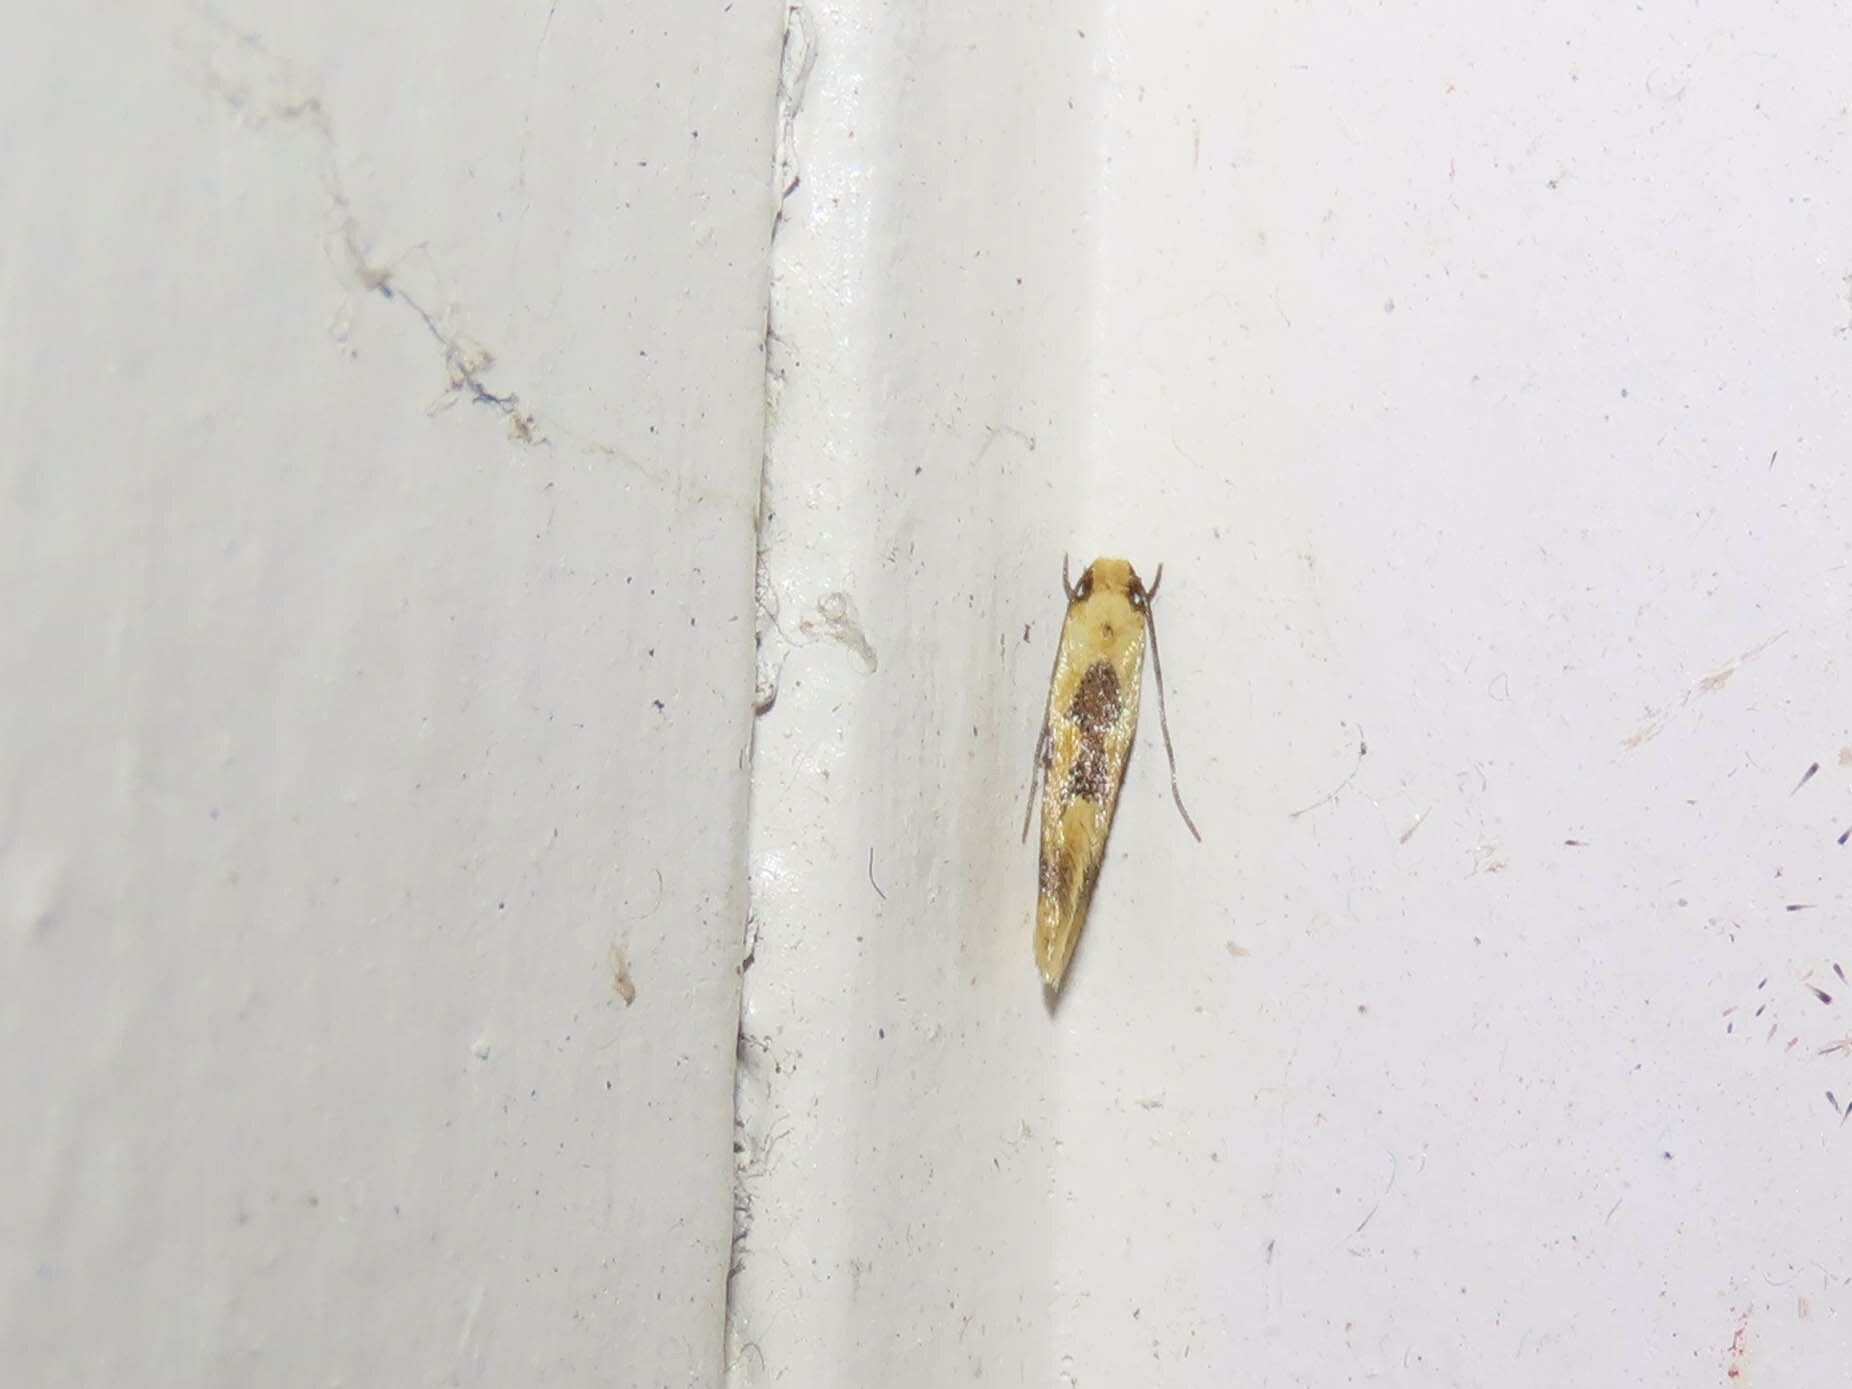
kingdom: Animalia
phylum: Arthropoda
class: Insecta
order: Lepidoptera
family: Meessiidae
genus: Hybroma
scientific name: Hybroma servulella
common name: Yellow wave moth
